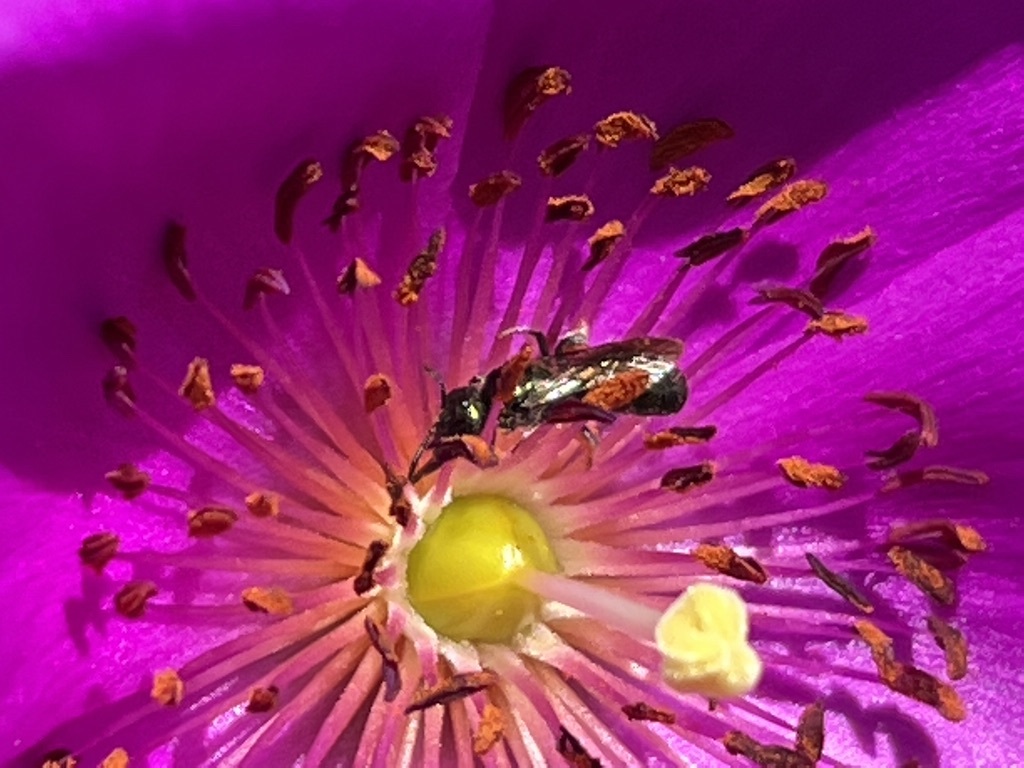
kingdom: Animalia
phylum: Arthropoda
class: Insecta
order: Hymenoptera
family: Apidae
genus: Zadontomerus
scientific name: Zadontomerus
